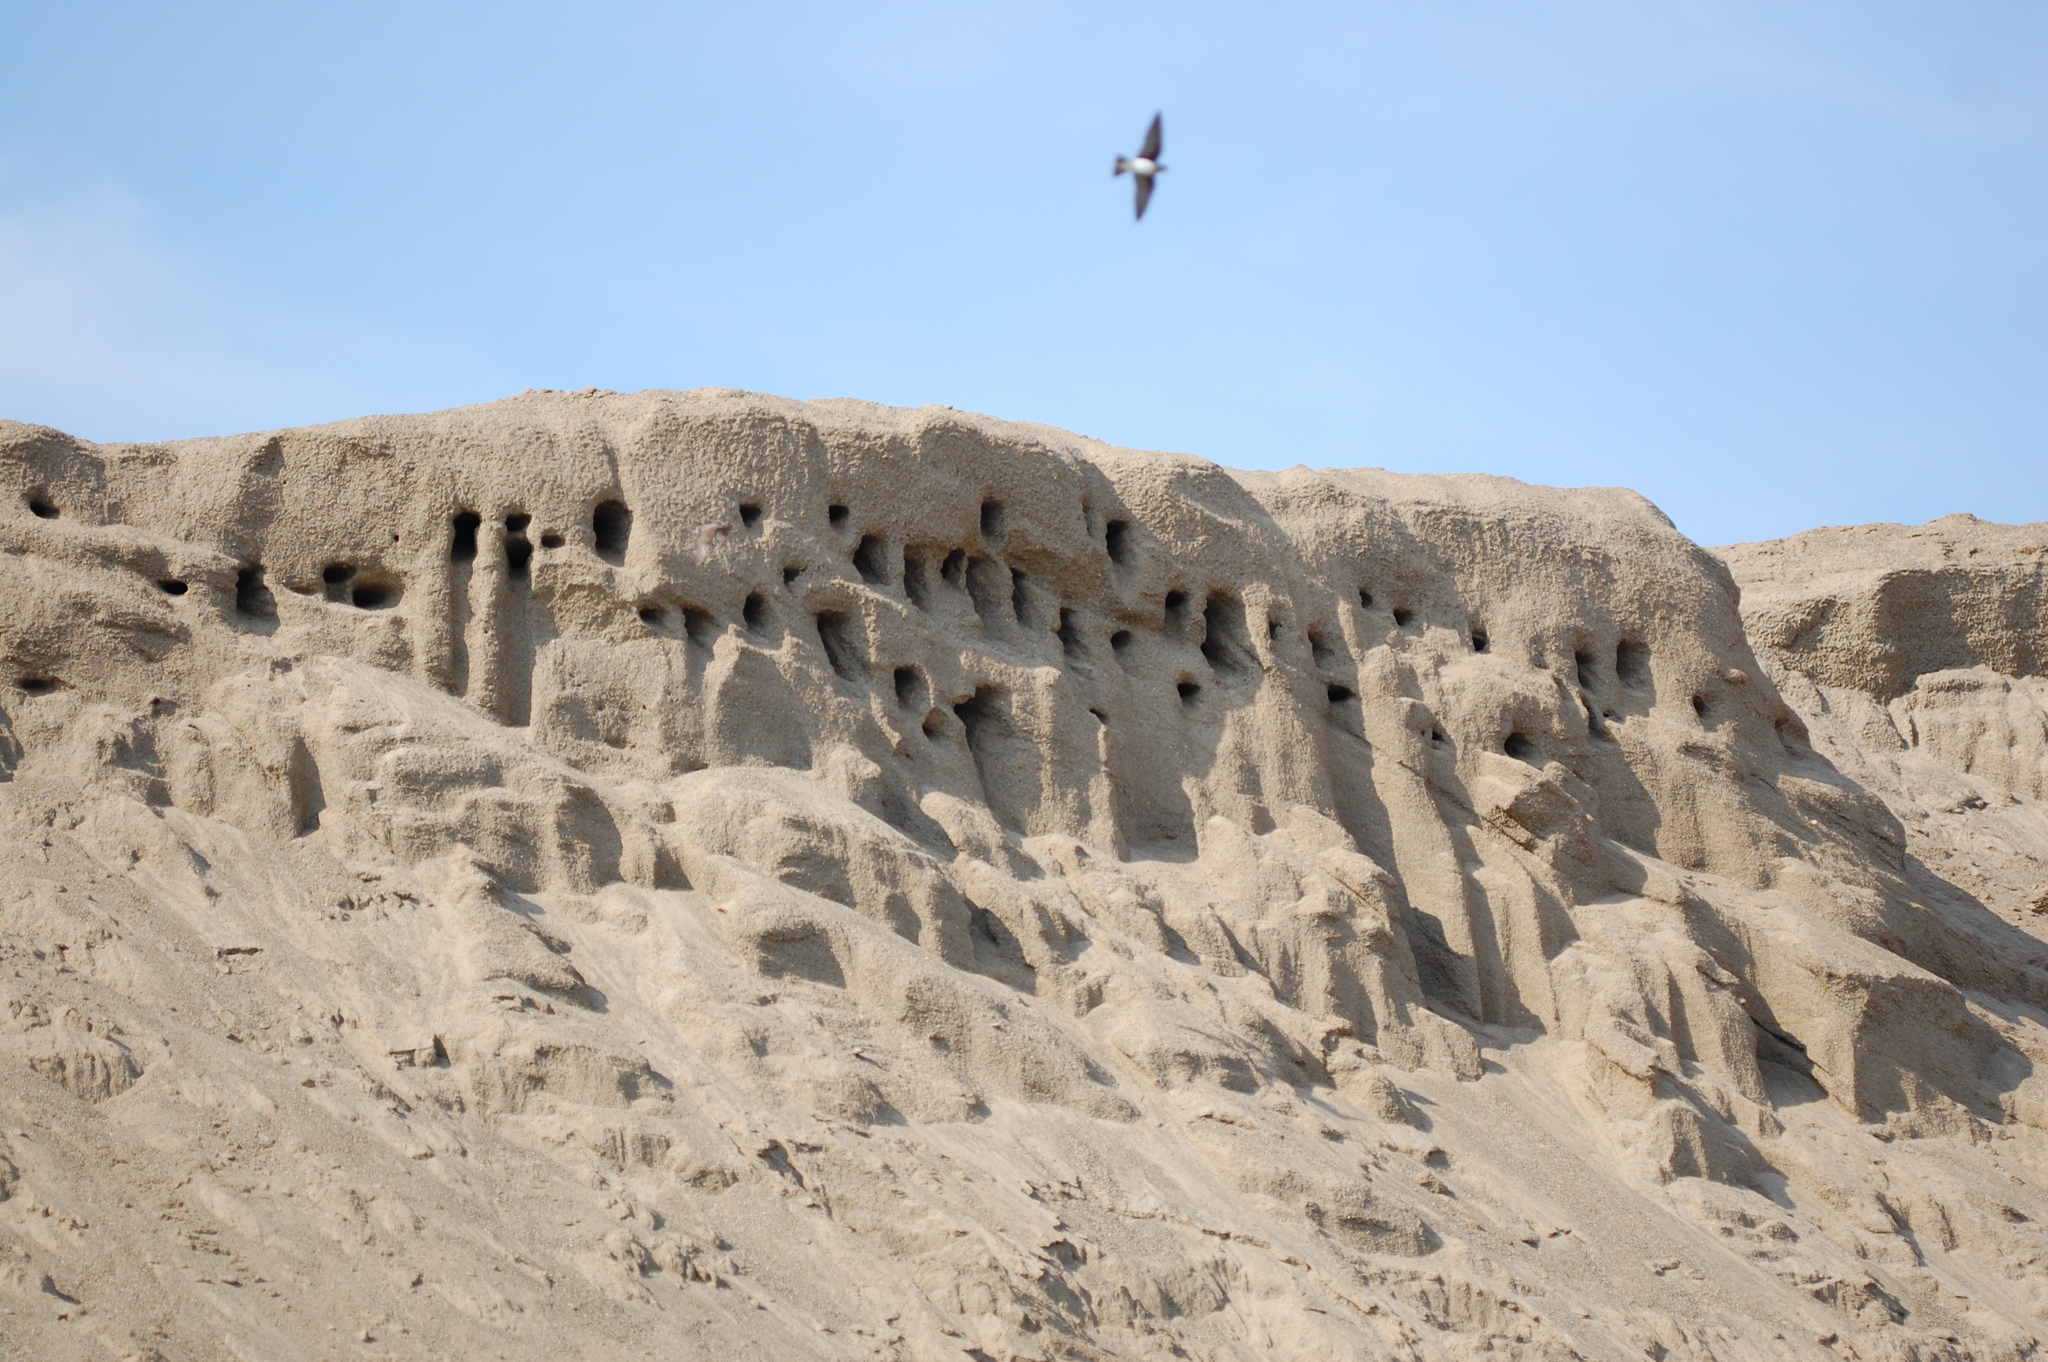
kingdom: Animalia
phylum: Chordata
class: Aves
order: Passeriformes
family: Hirundinidae
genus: Riparia
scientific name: Riparia riparia
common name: Sand martin
